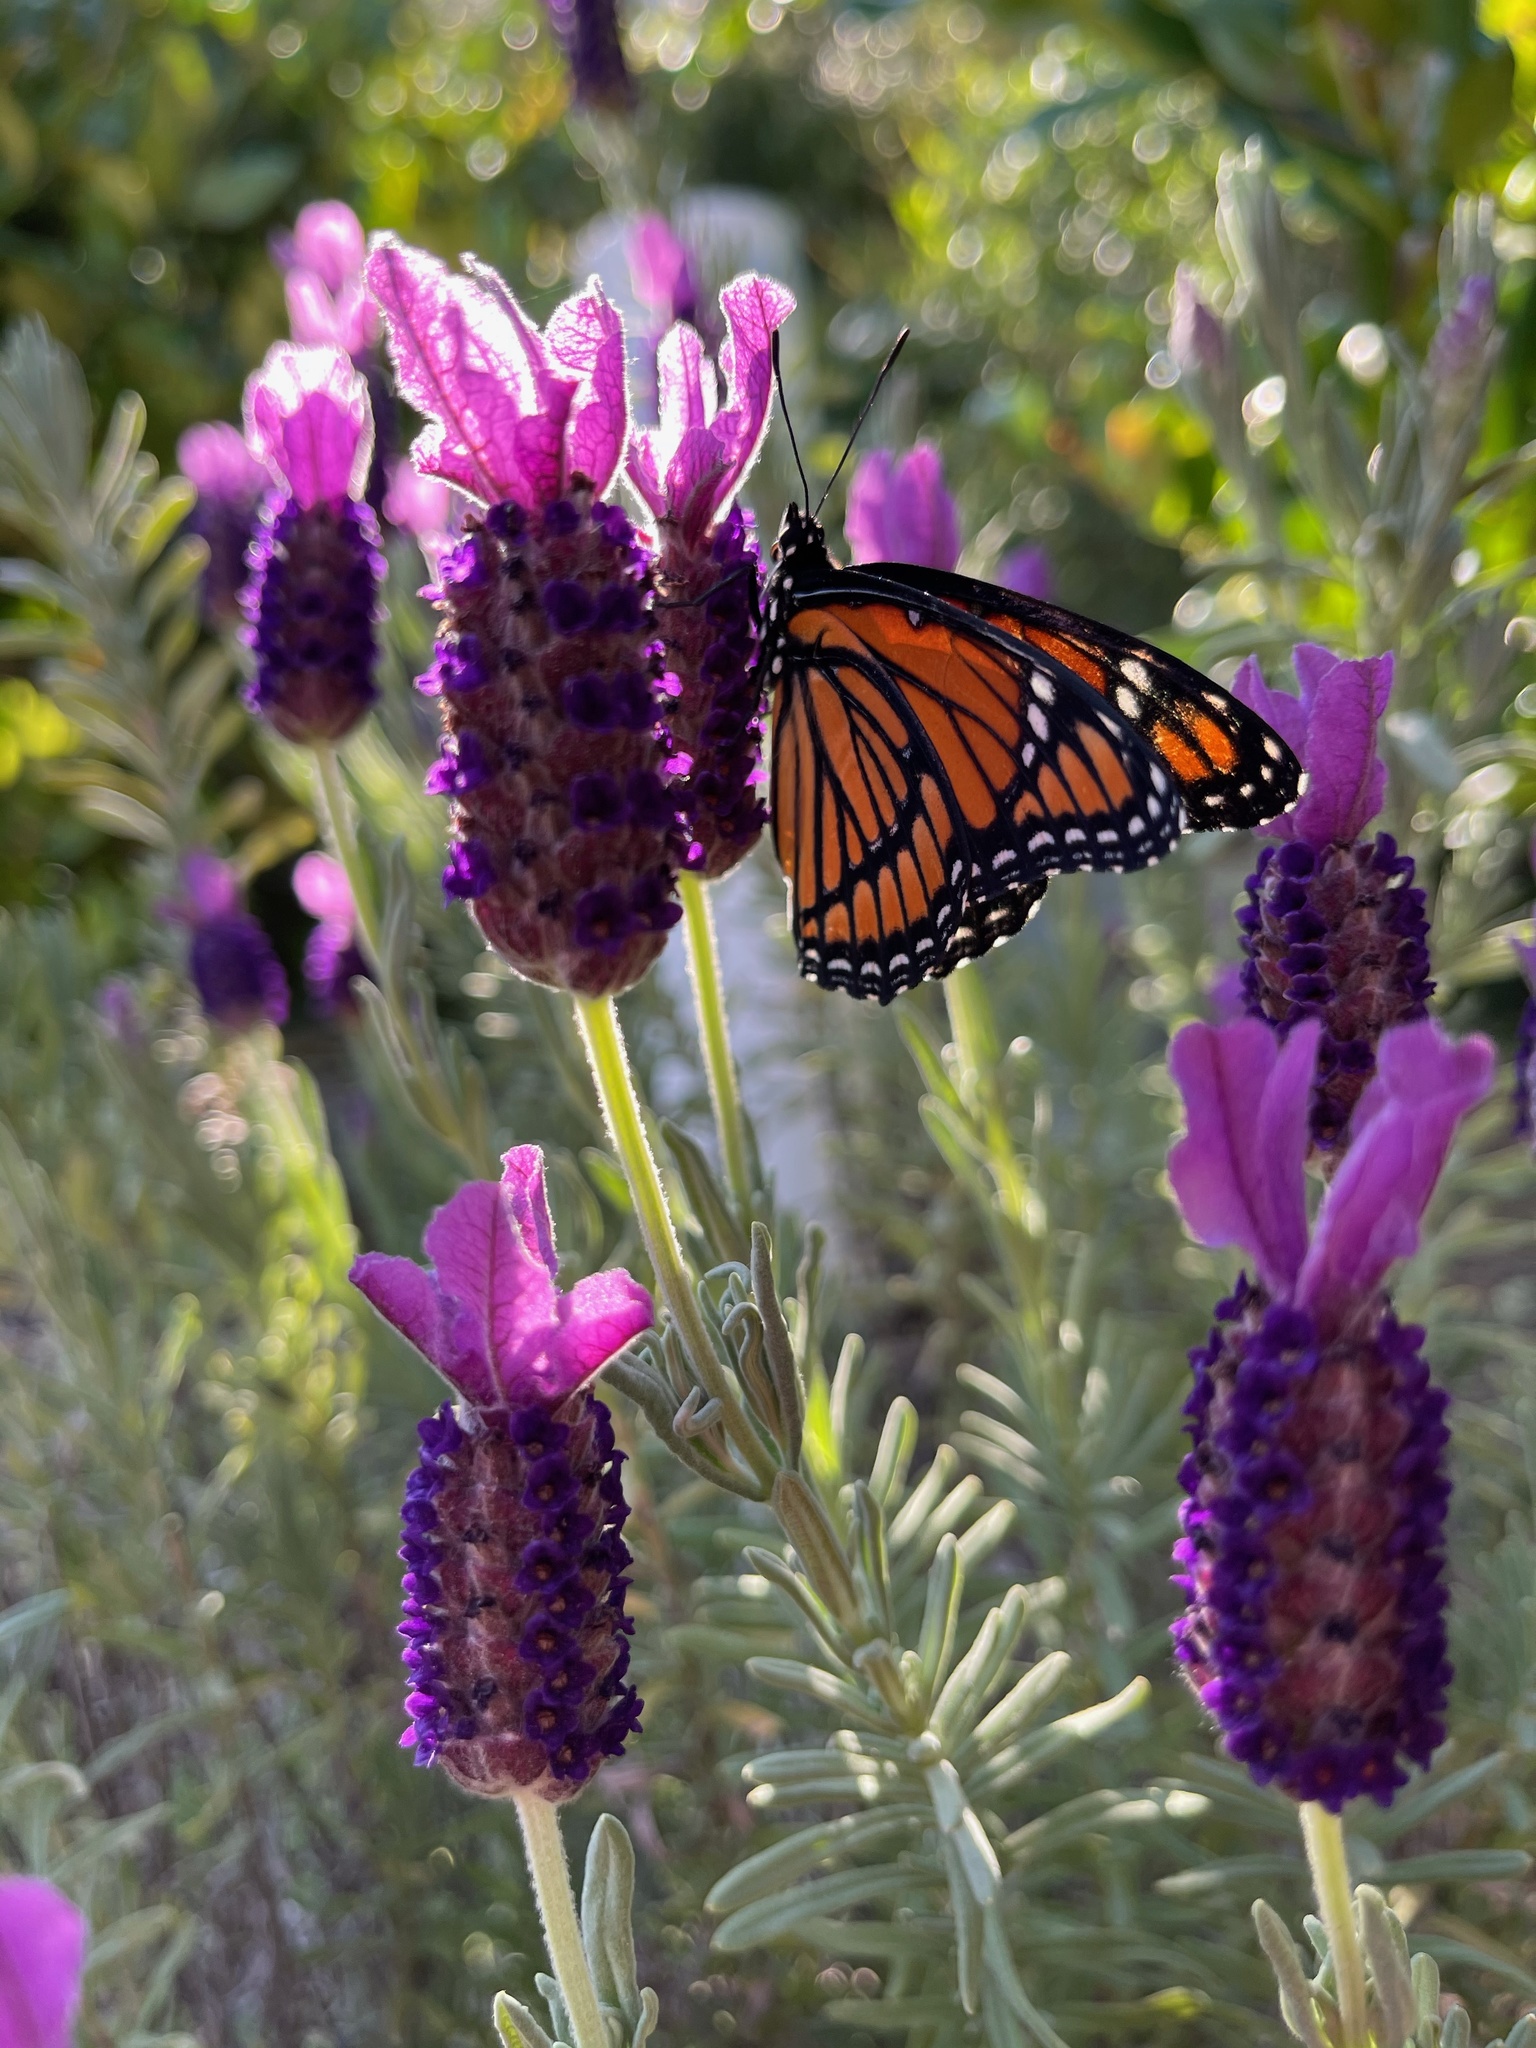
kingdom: Animalia
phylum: Arthropoda
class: Insecta
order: Lepidoptera
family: Nymphalidae
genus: Limenitis
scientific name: Limenitis archippus
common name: Viceroy
